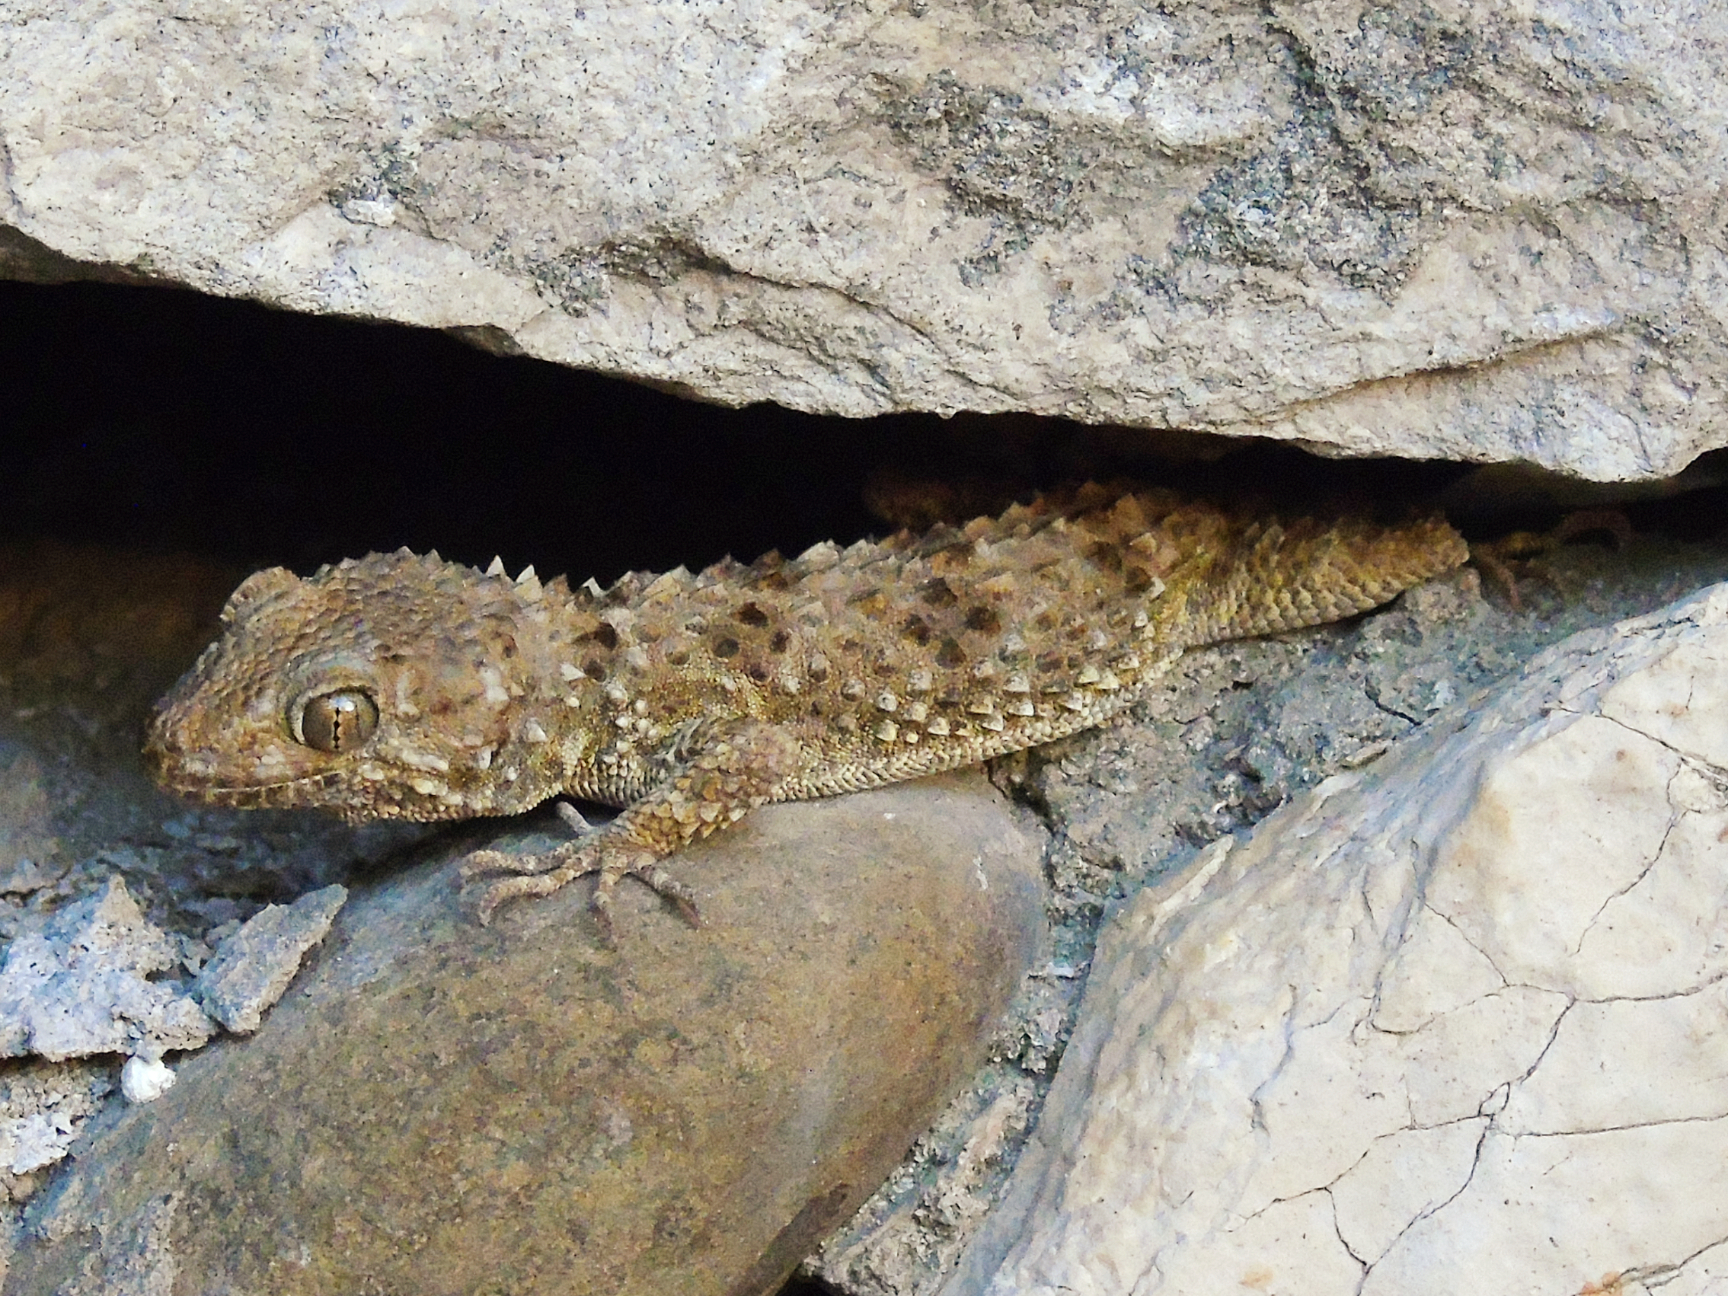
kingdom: Animalia
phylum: Chordata
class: Squamata
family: Gekkonidae
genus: Tenuidactylus
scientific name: Tenuidactylus caspius
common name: Caspian bent-toed gecko
